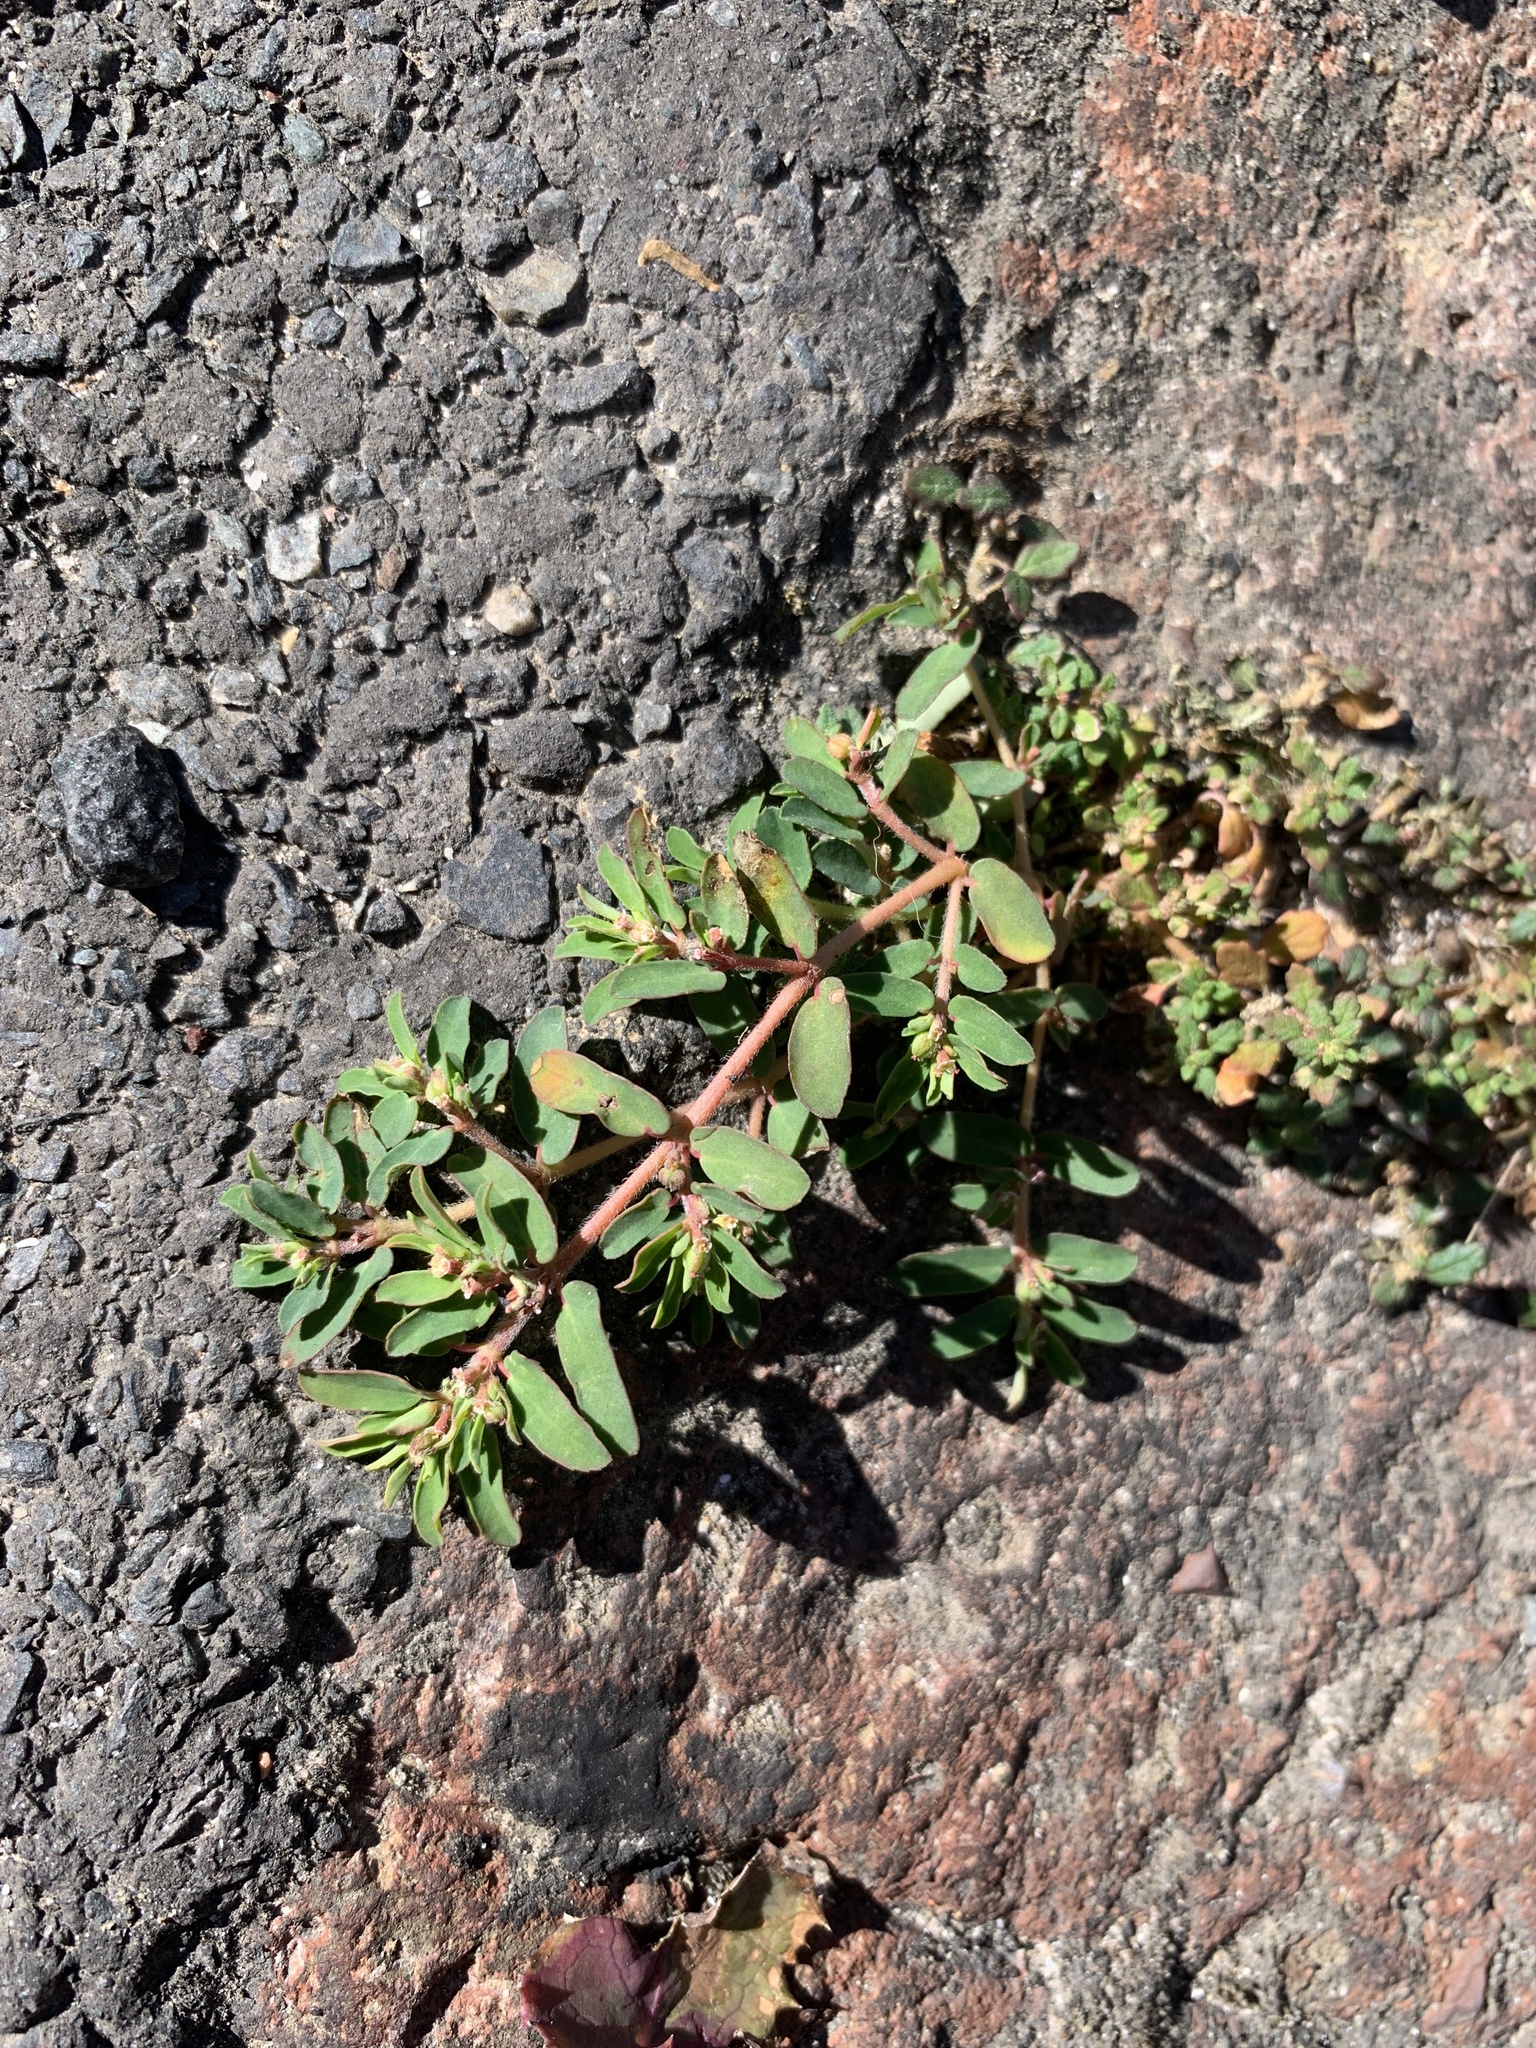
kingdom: Plantae
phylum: Tracheophyta
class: Magnoliopsida
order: Malpighiales
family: Euphorbiaceae
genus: Euphorbia
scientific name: Euphorbia maculata
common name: Spotted spurge
